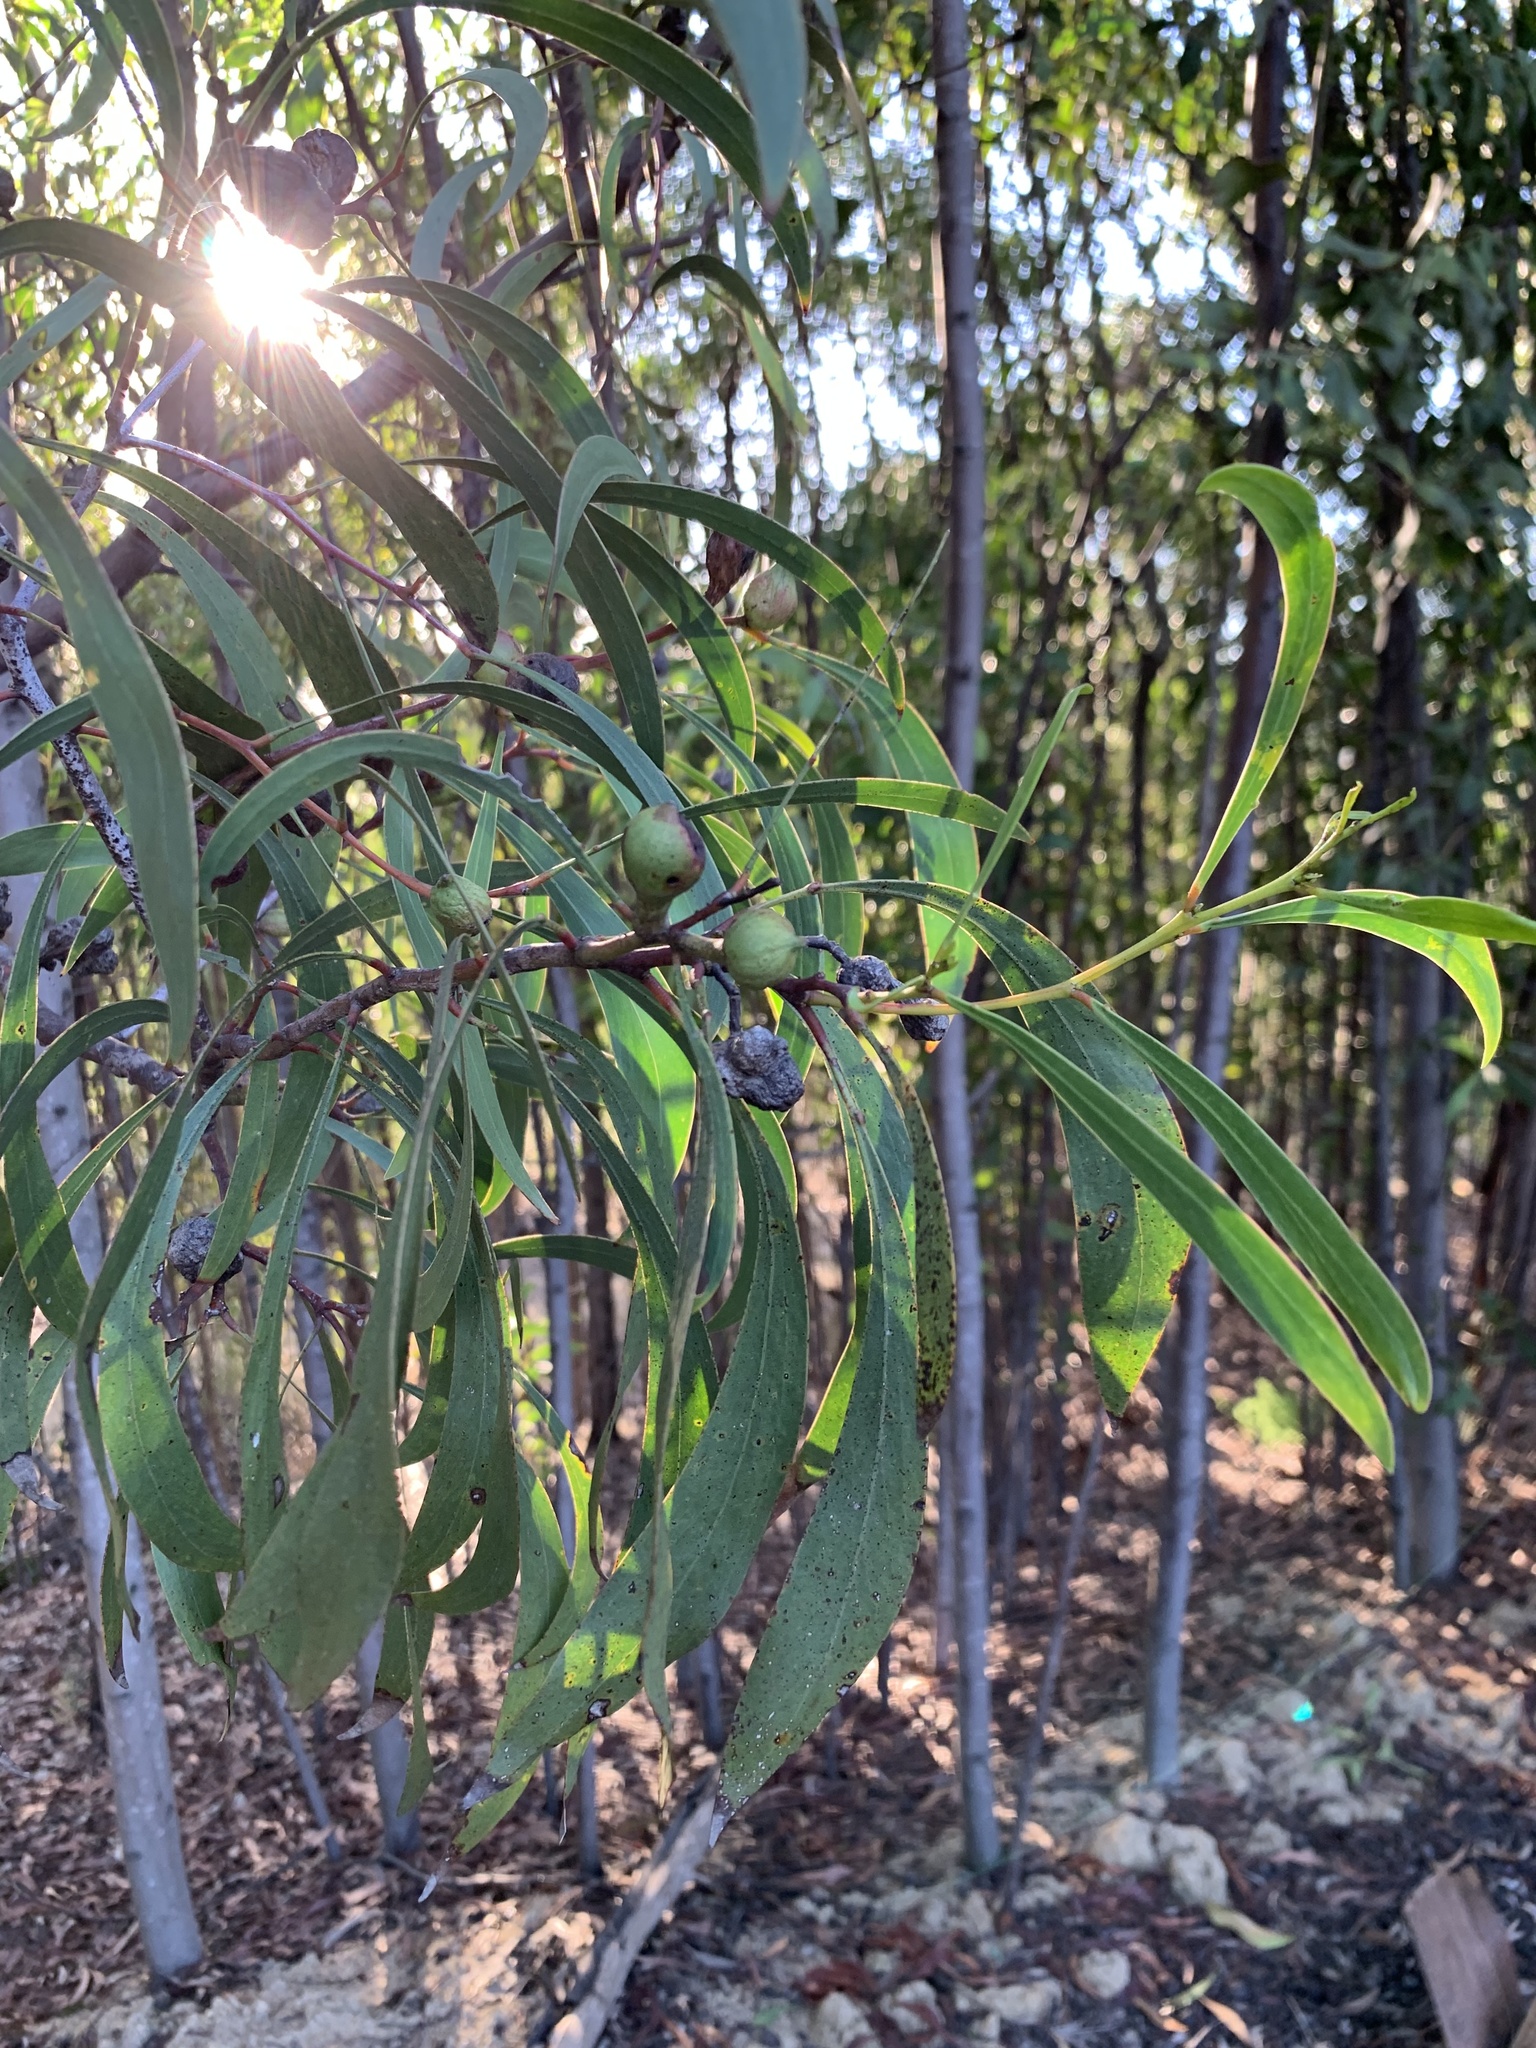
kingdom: Plantae
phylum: Tracheophyta
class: Magnoliopsida
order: Fabales
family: Fabaceae
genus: Acacia
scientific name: Acacia pycnantha
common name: Golden wattle
